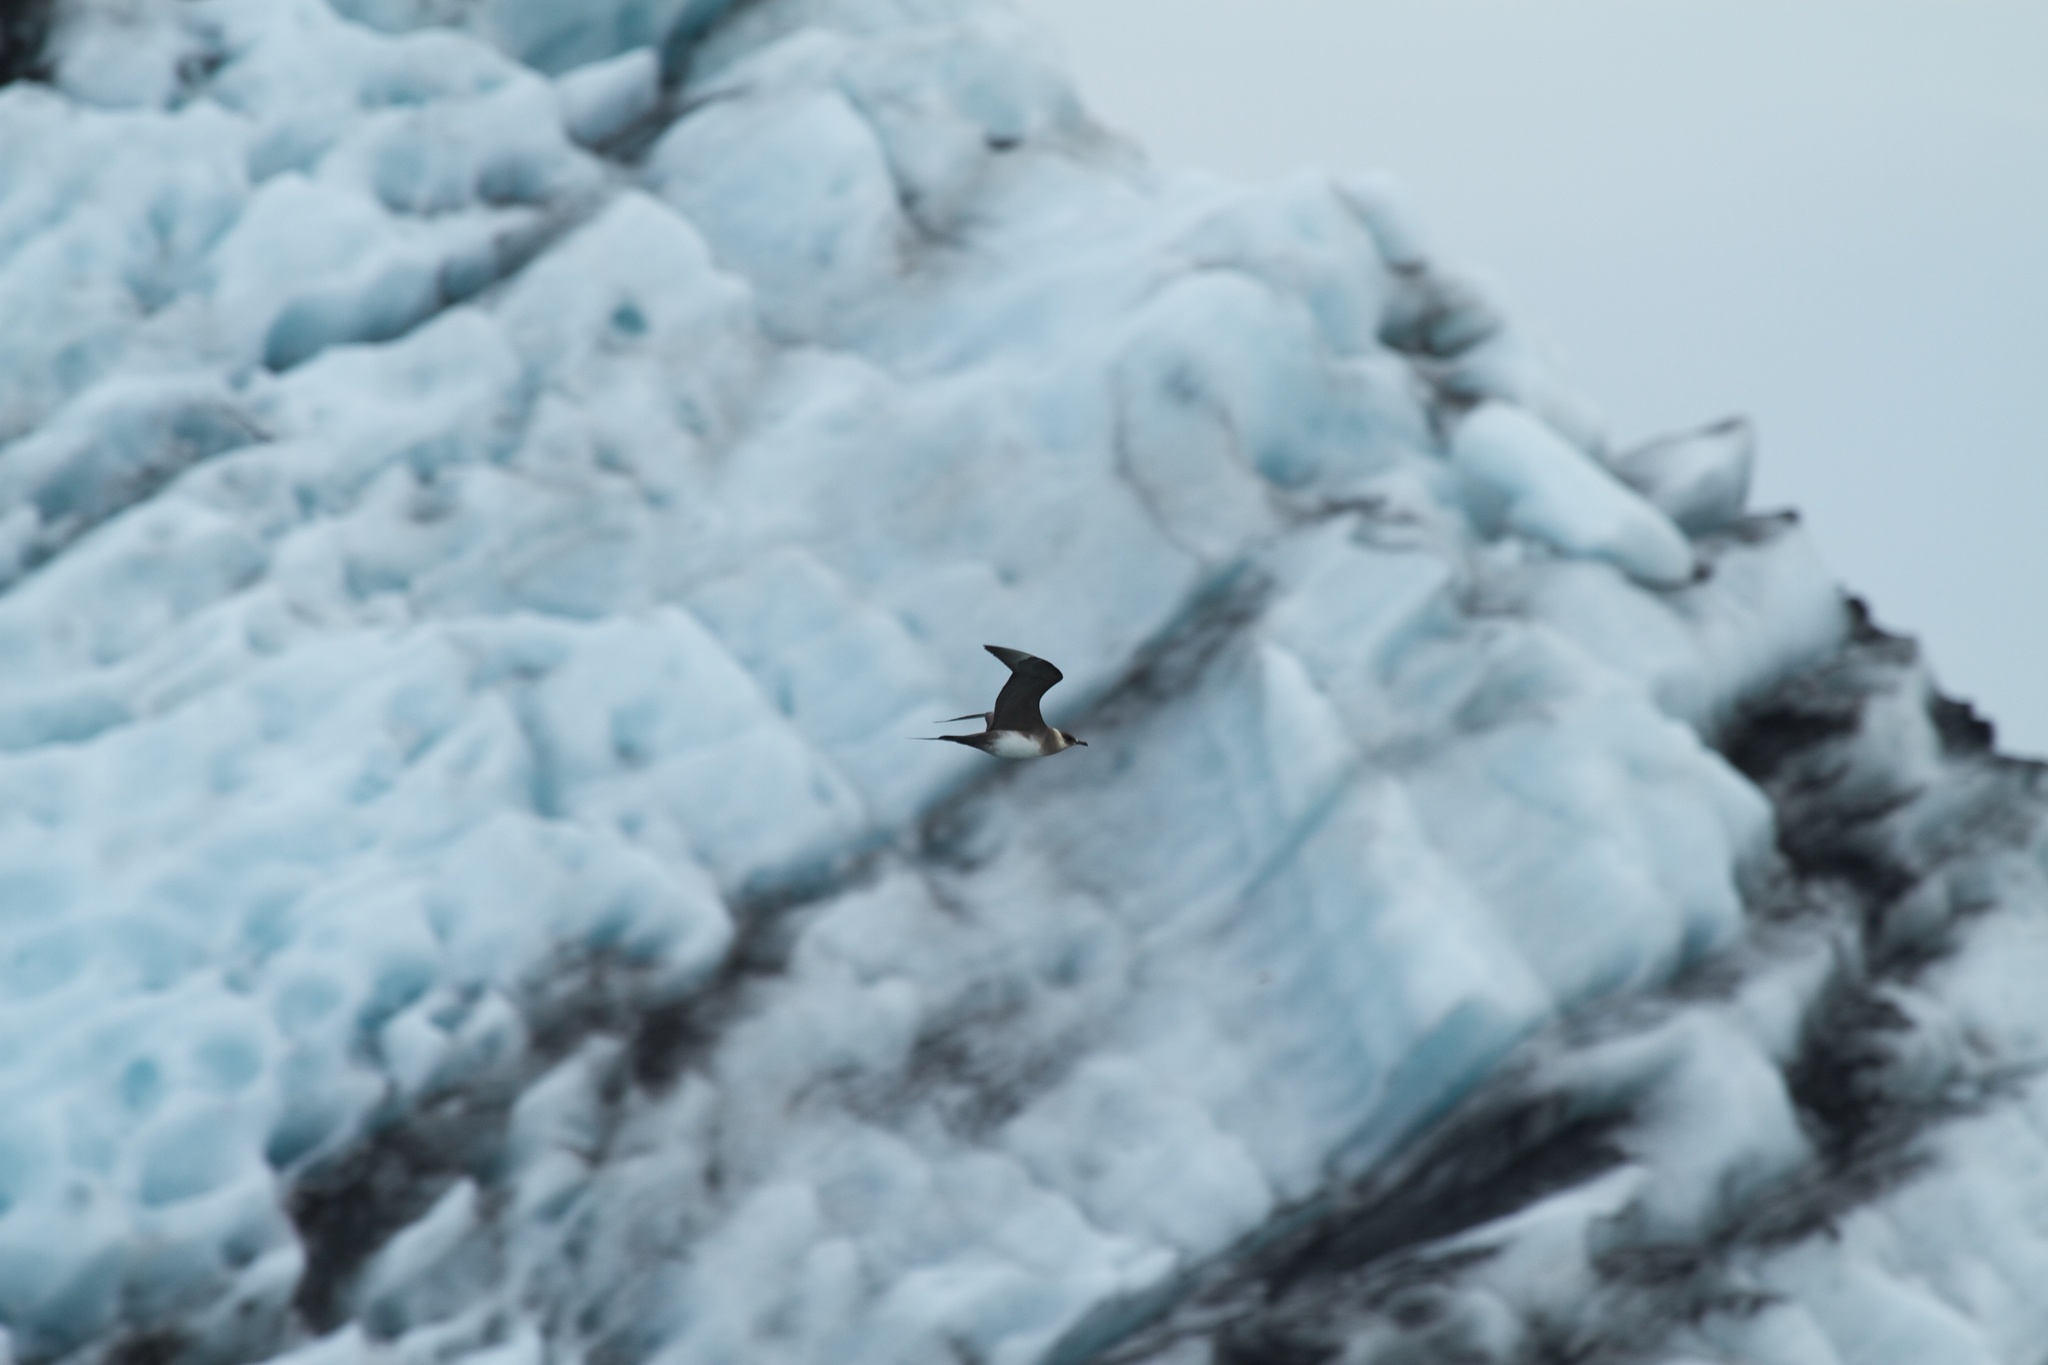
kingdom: Animalia
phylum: Chordata
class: Aves
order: Charadriiformes
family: Stercorariidae
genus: Stercorarius
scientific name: Stercorarius parasiticus
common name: Parasitic jaeger
